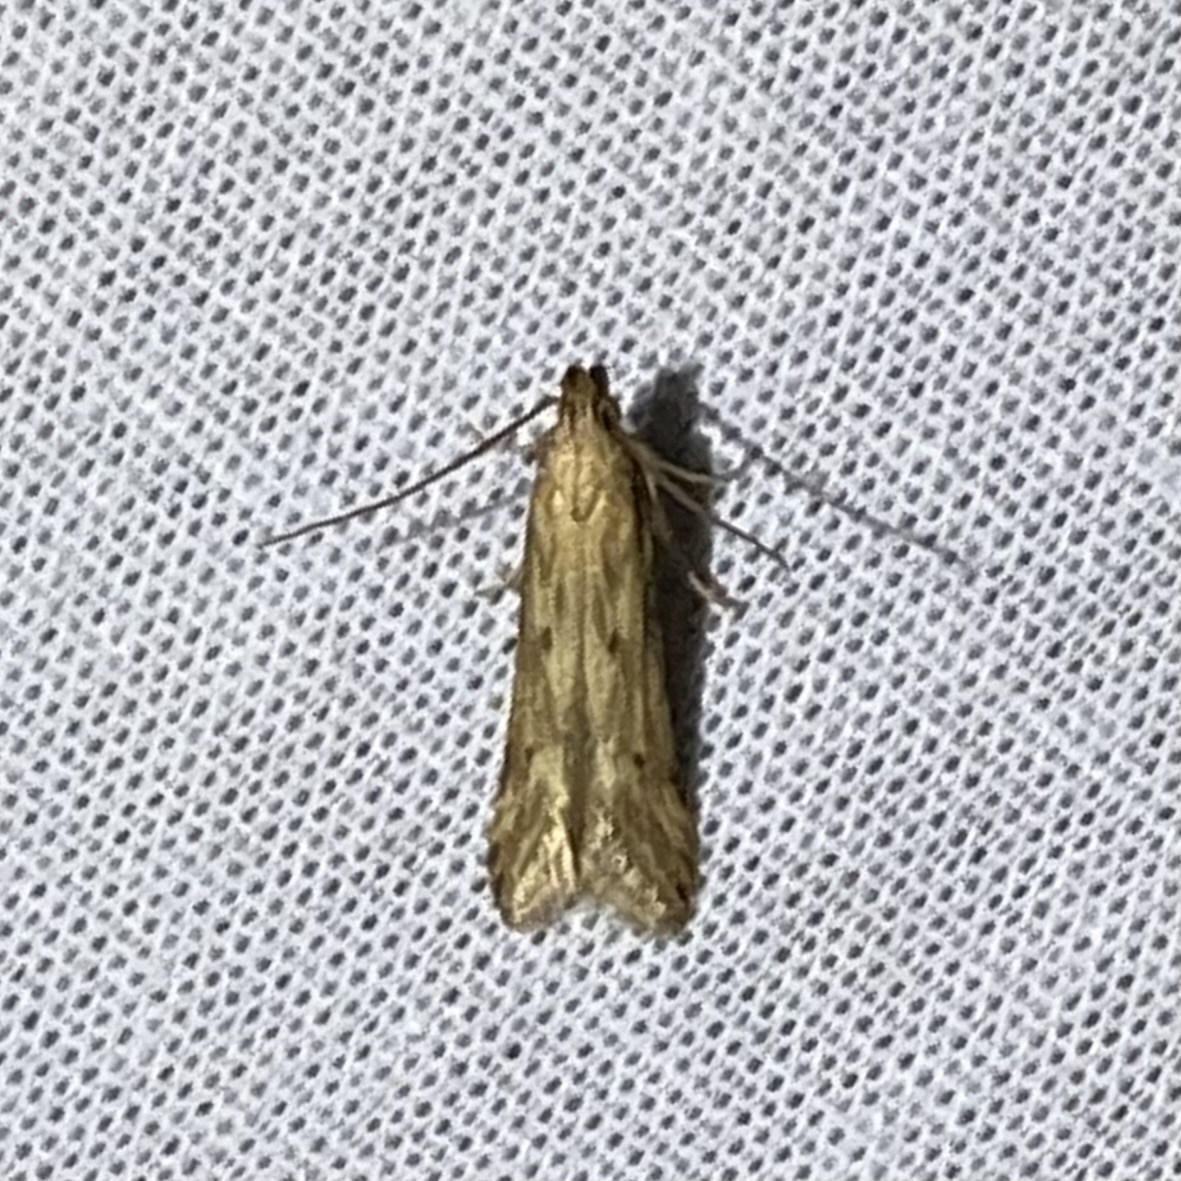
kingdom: Animalia
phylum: Arthropoda
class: Insecta
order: Lepidoptera
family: Gelechiidae
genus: Metzneria
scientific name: Metzneria lappella
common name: Burdock neb
